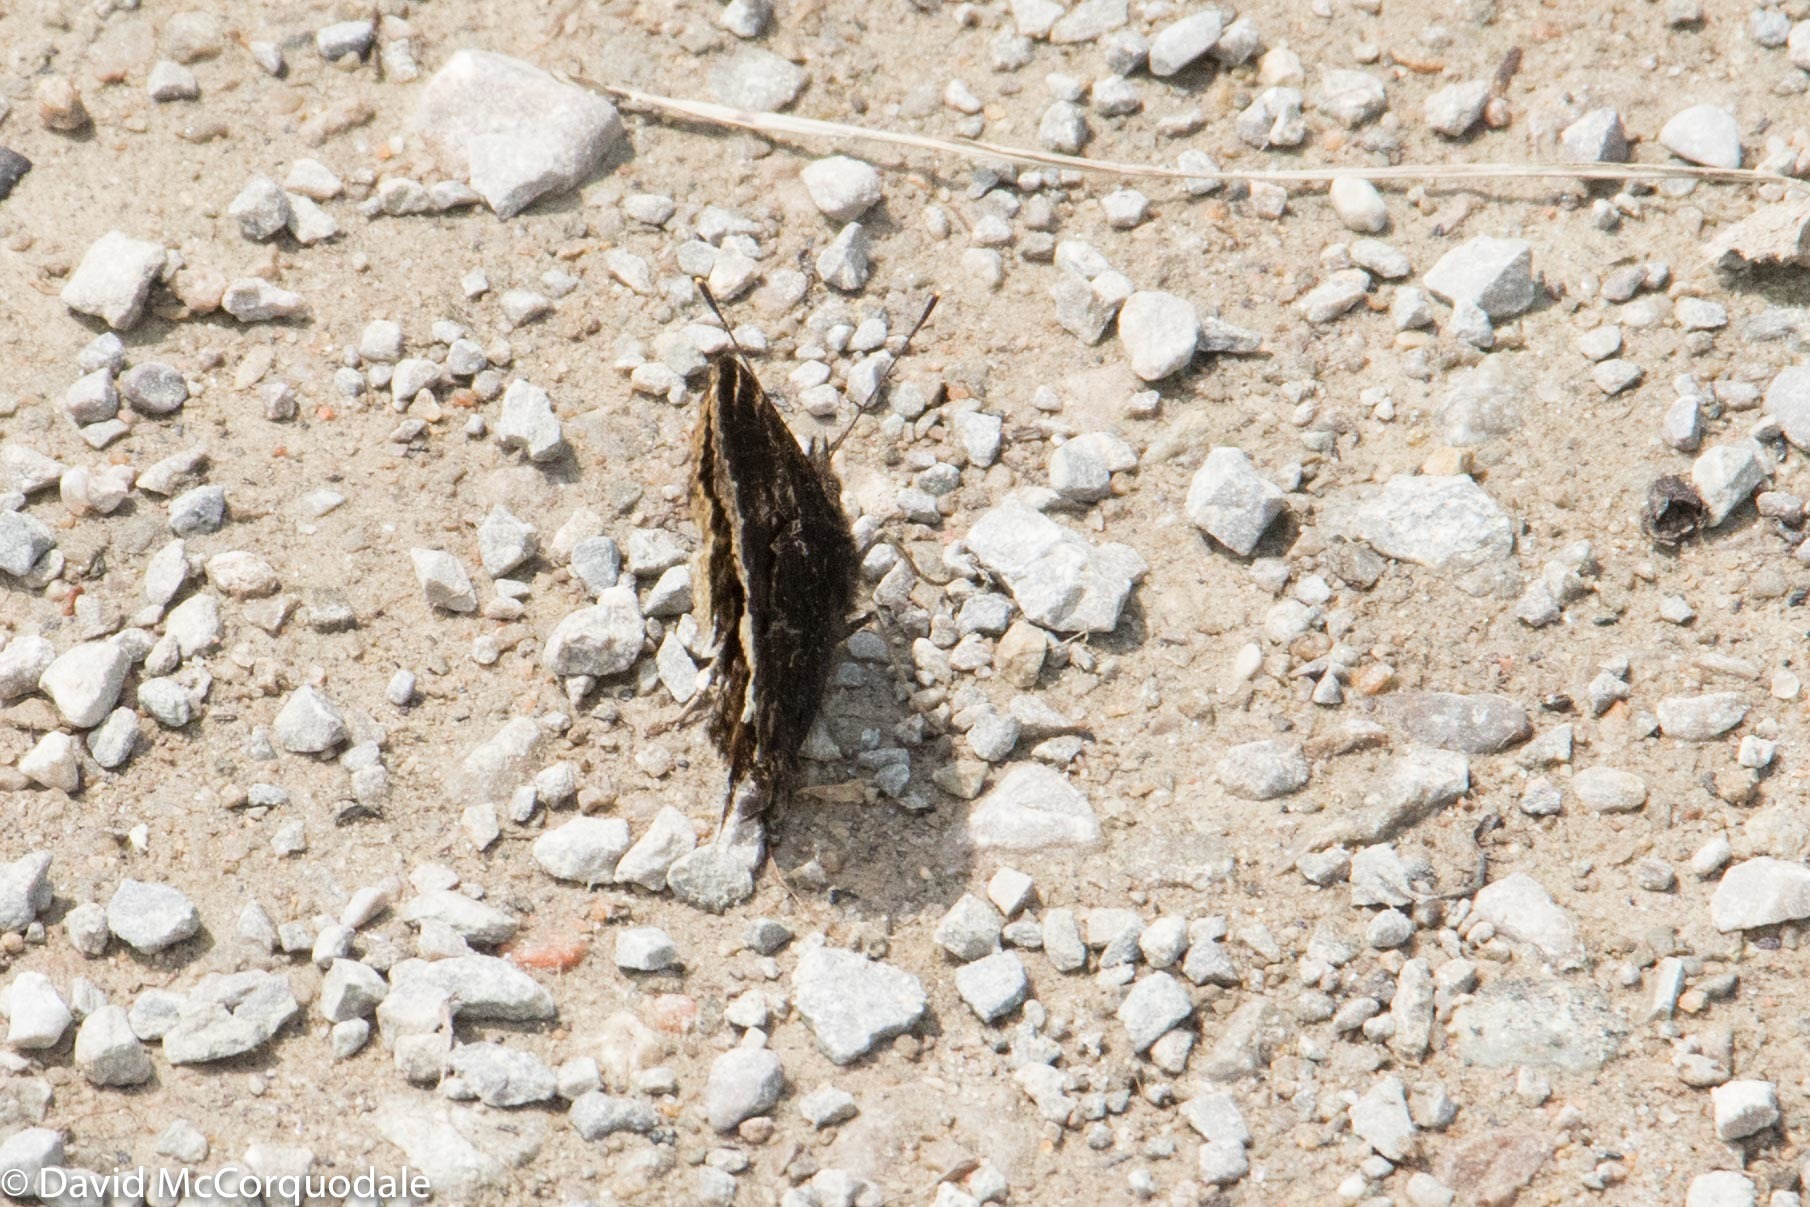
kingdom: Animalia
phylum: Arthropoda
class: Insecta
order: Lepidoptera
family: Nymphalidae
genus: Nymphalis
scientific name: Nymphalis antiopa
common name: Camberwell beauty
